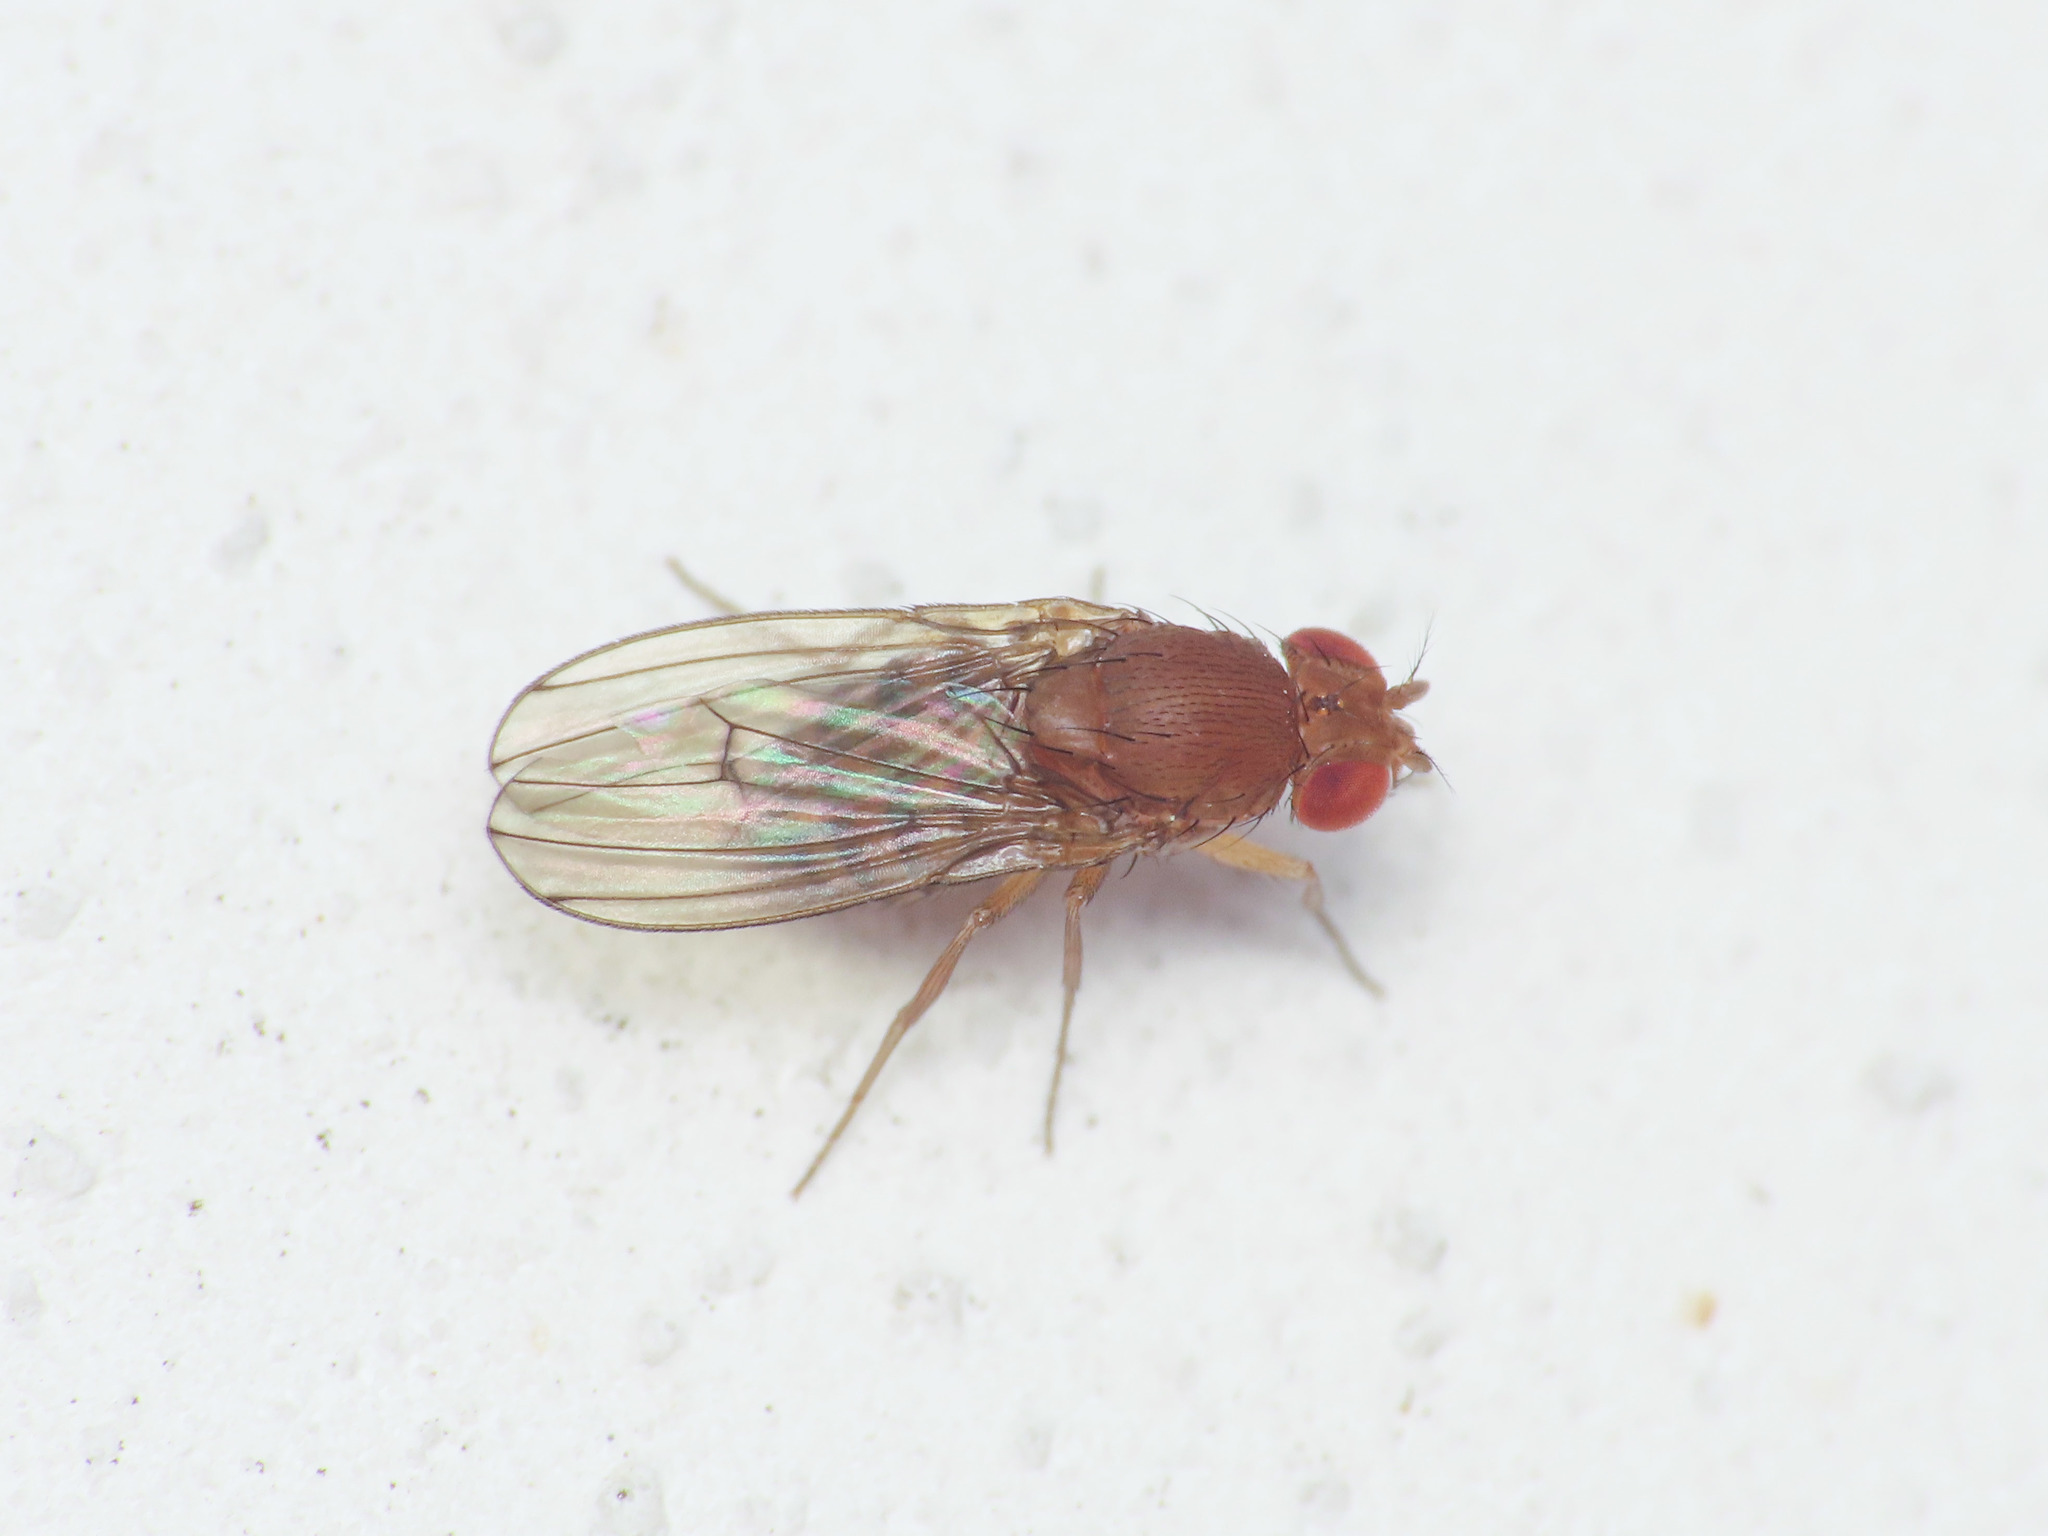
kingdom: Animalia
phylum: Arthropoda
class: Insecta
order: Diptera
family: Drosophilidae
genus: Drosophila
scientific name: Drosophila immigrans
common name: Pomace fly
